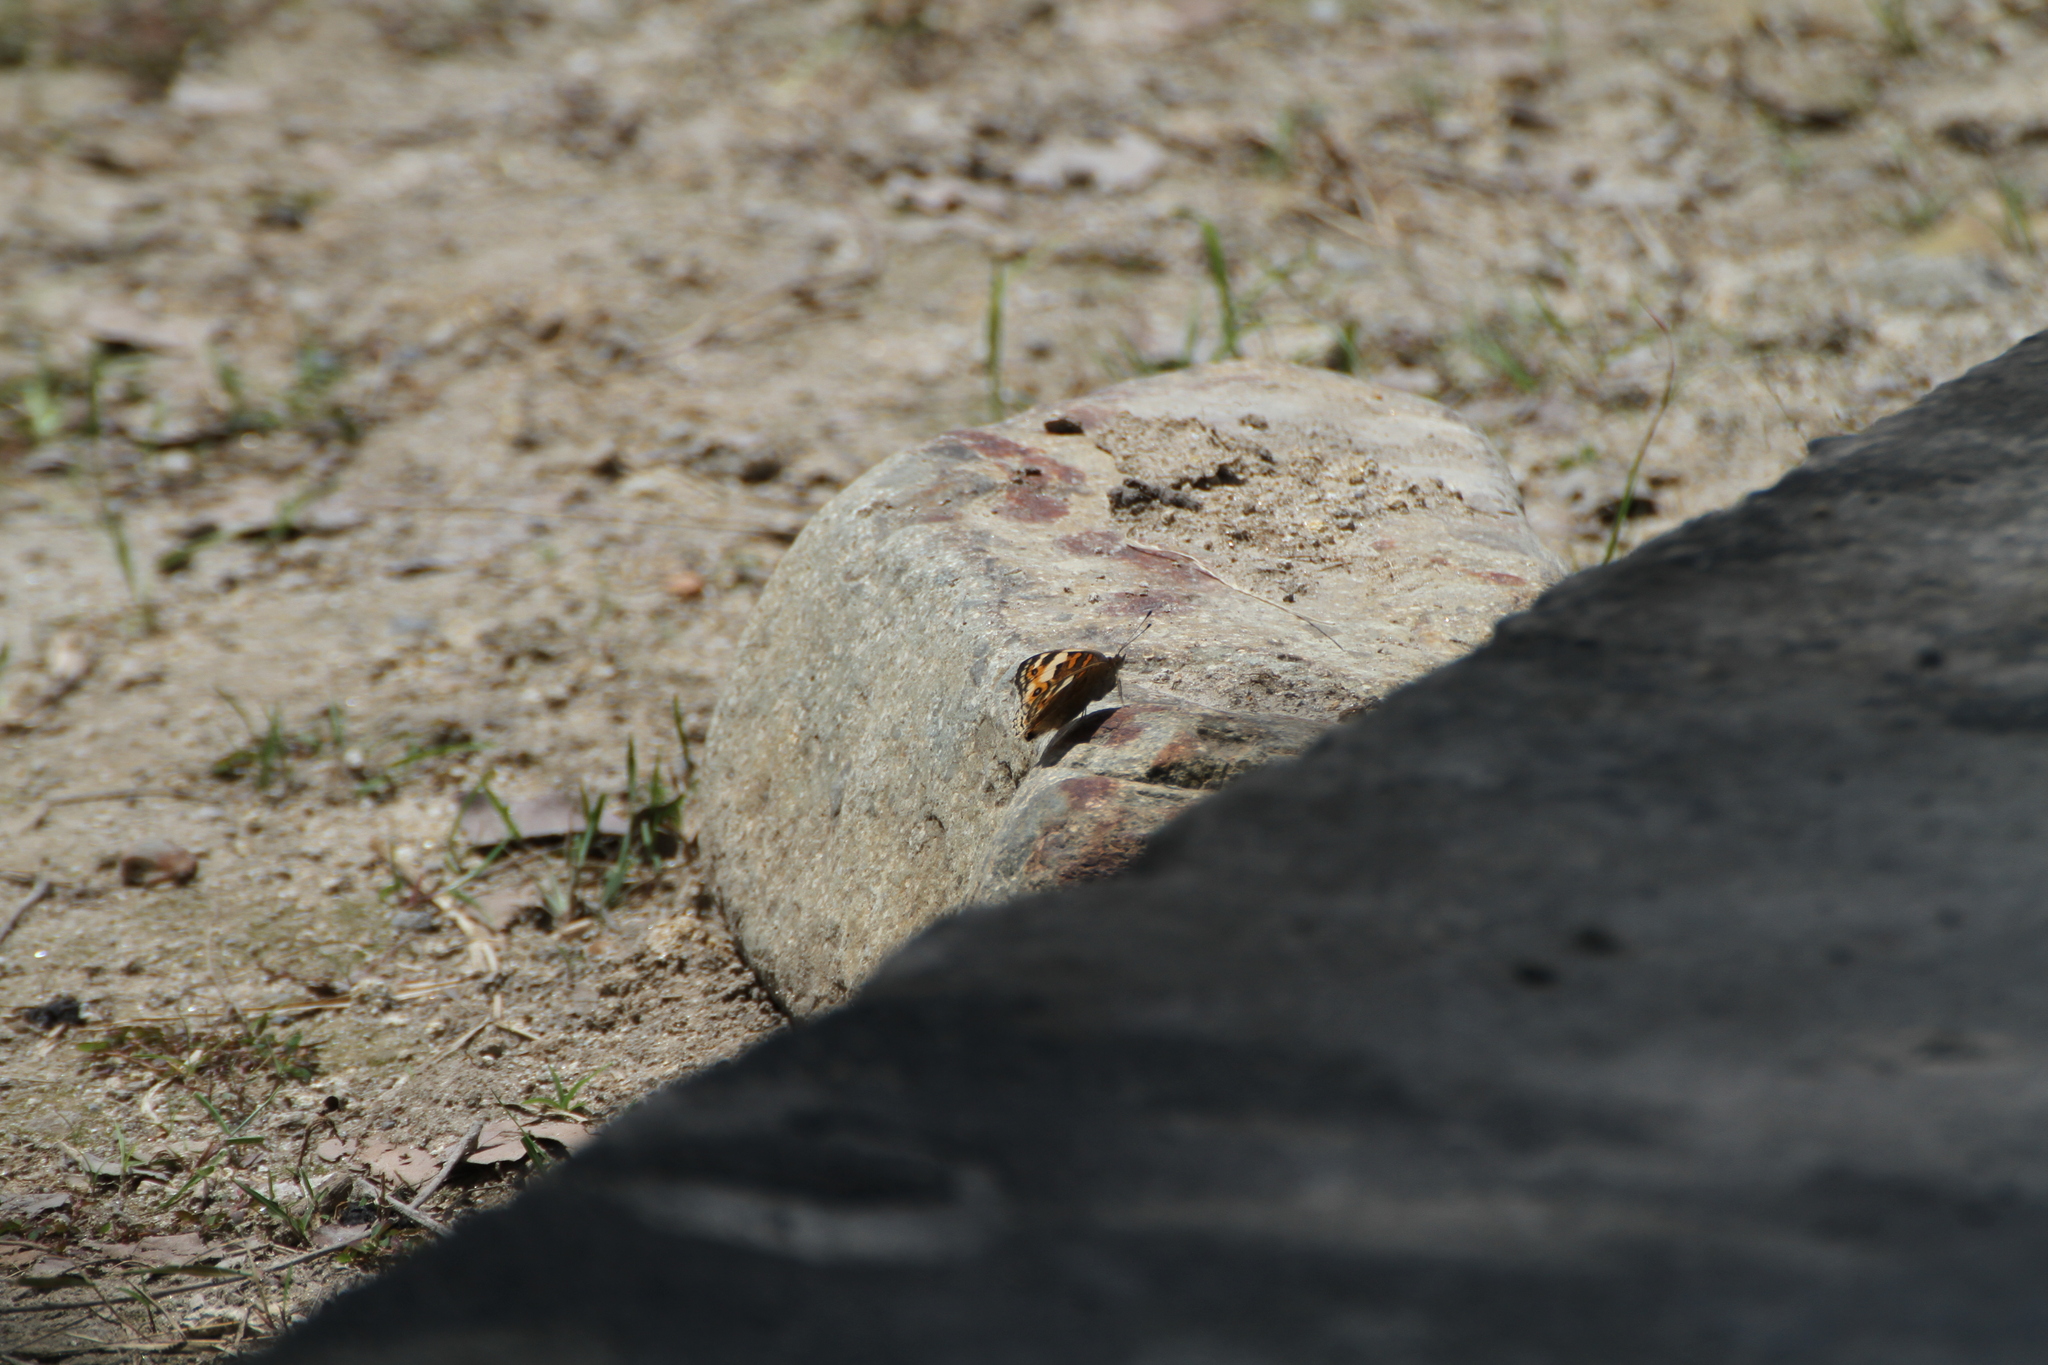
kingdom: Animalia
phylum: Arthropoda
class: Insecta
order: Lepidoptera
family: Nymphalidae
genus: Junonia
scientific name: Junonia orithya
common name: Blue pansy
